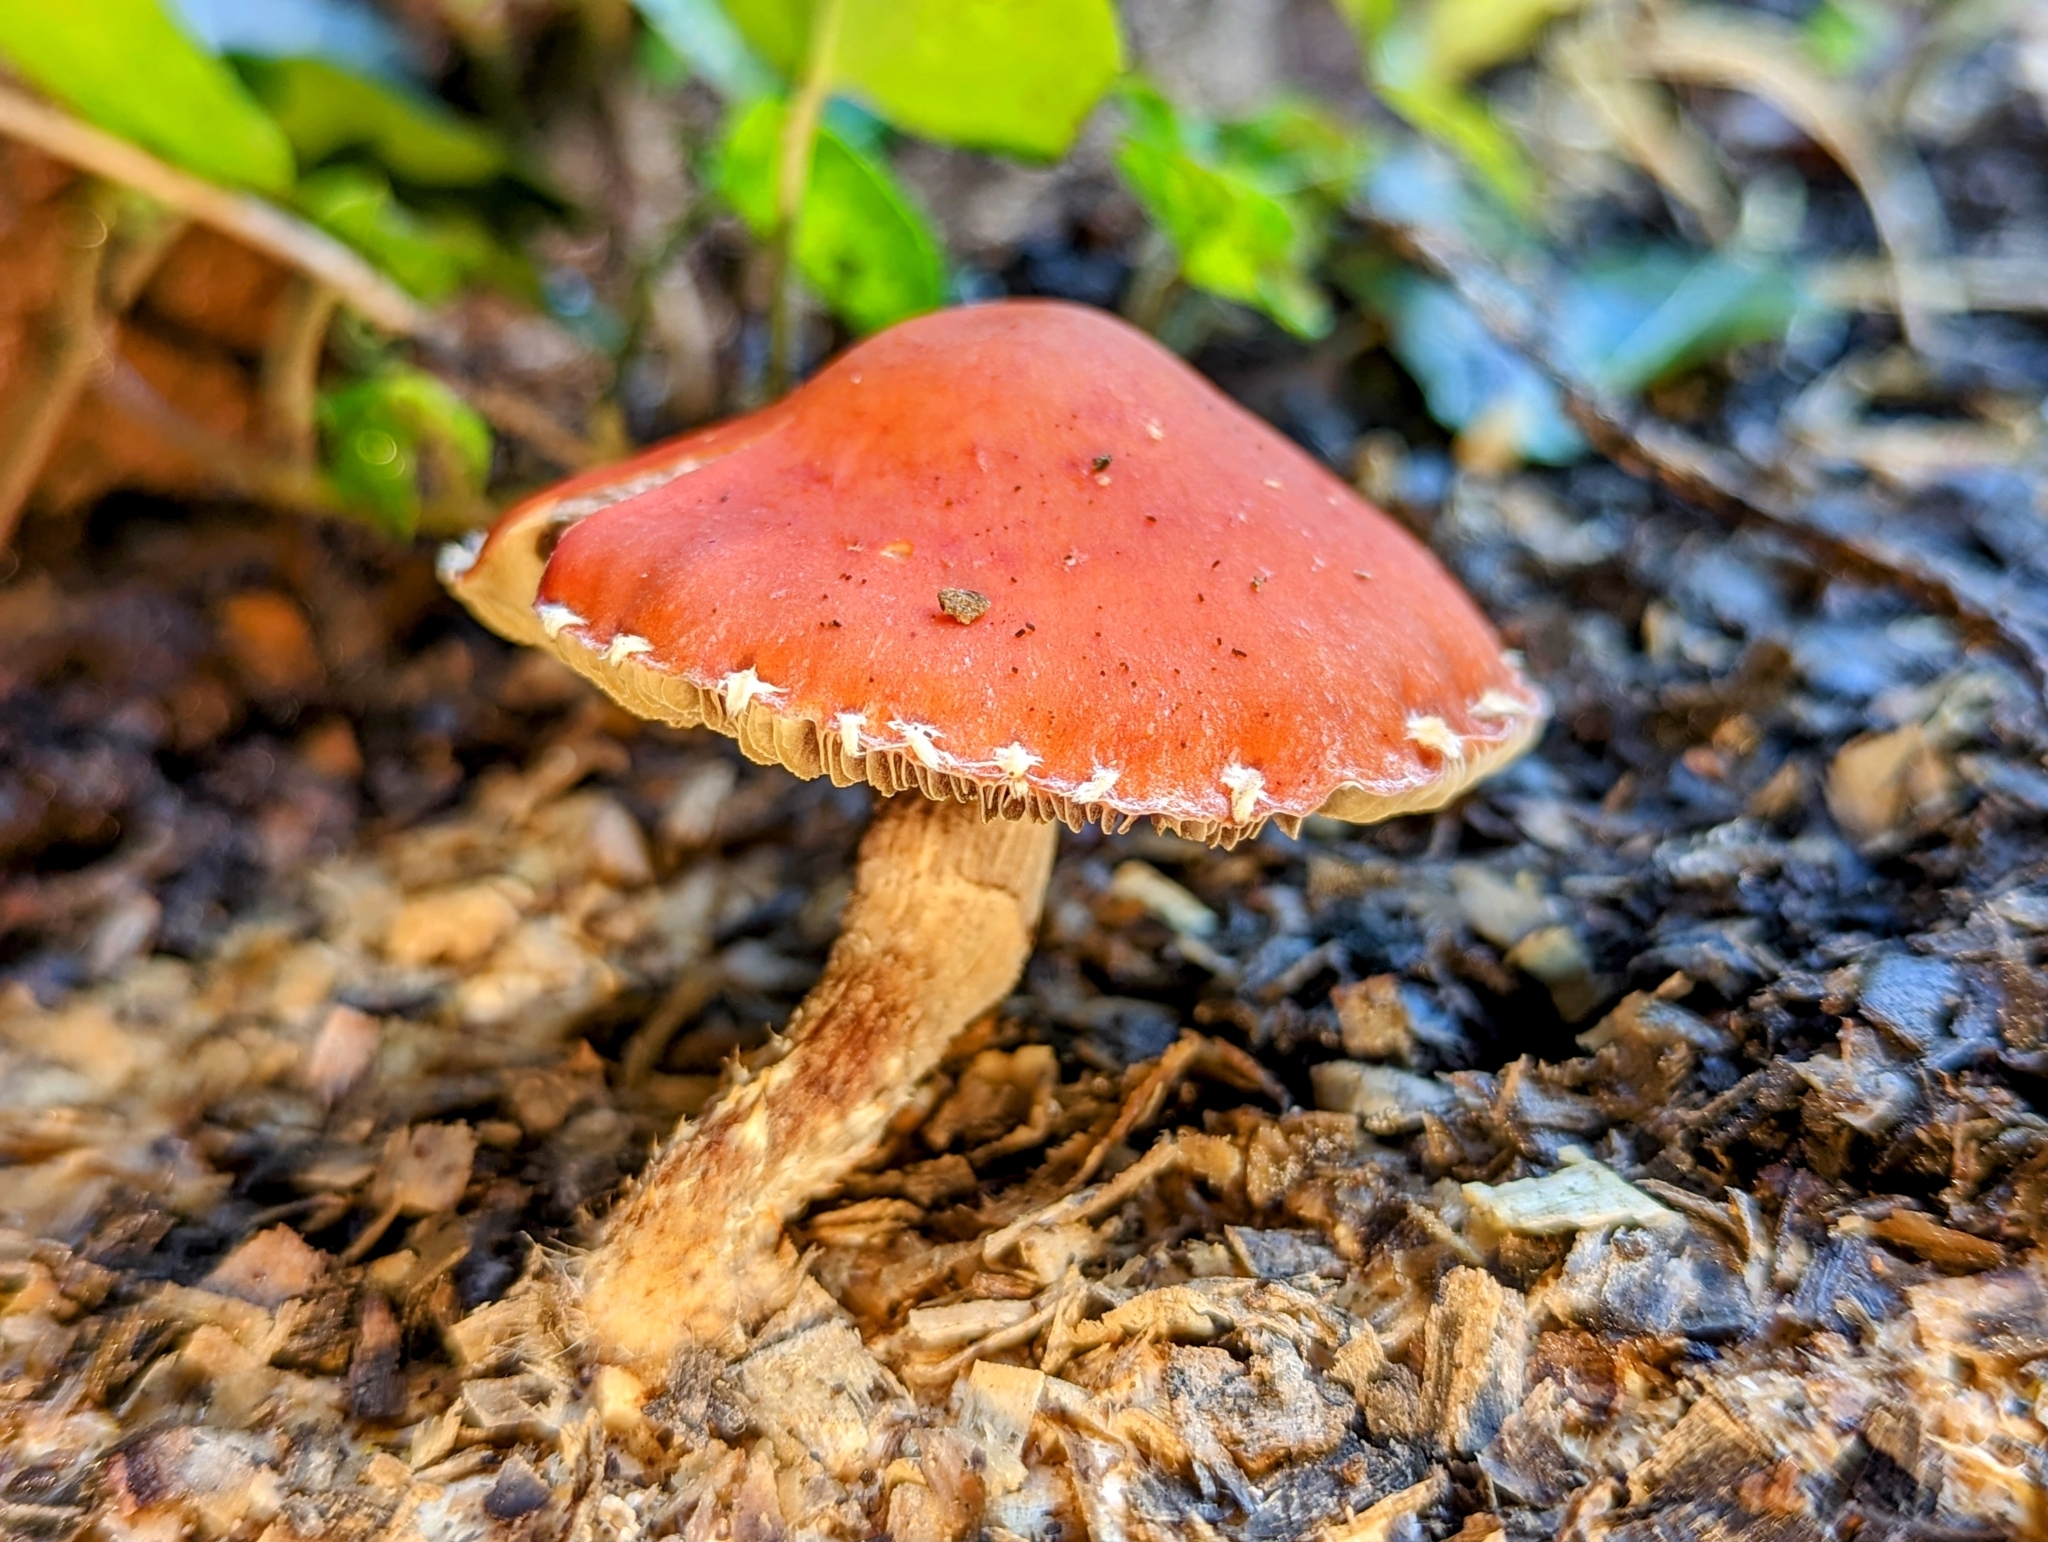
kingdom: Fungi
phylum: Basidiomycota
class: Agaricomycetes
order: Agaricales
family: Strophariaceae
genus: Leratiomyces
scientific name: Leratiomyces ceres
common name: Redlead roundhead
